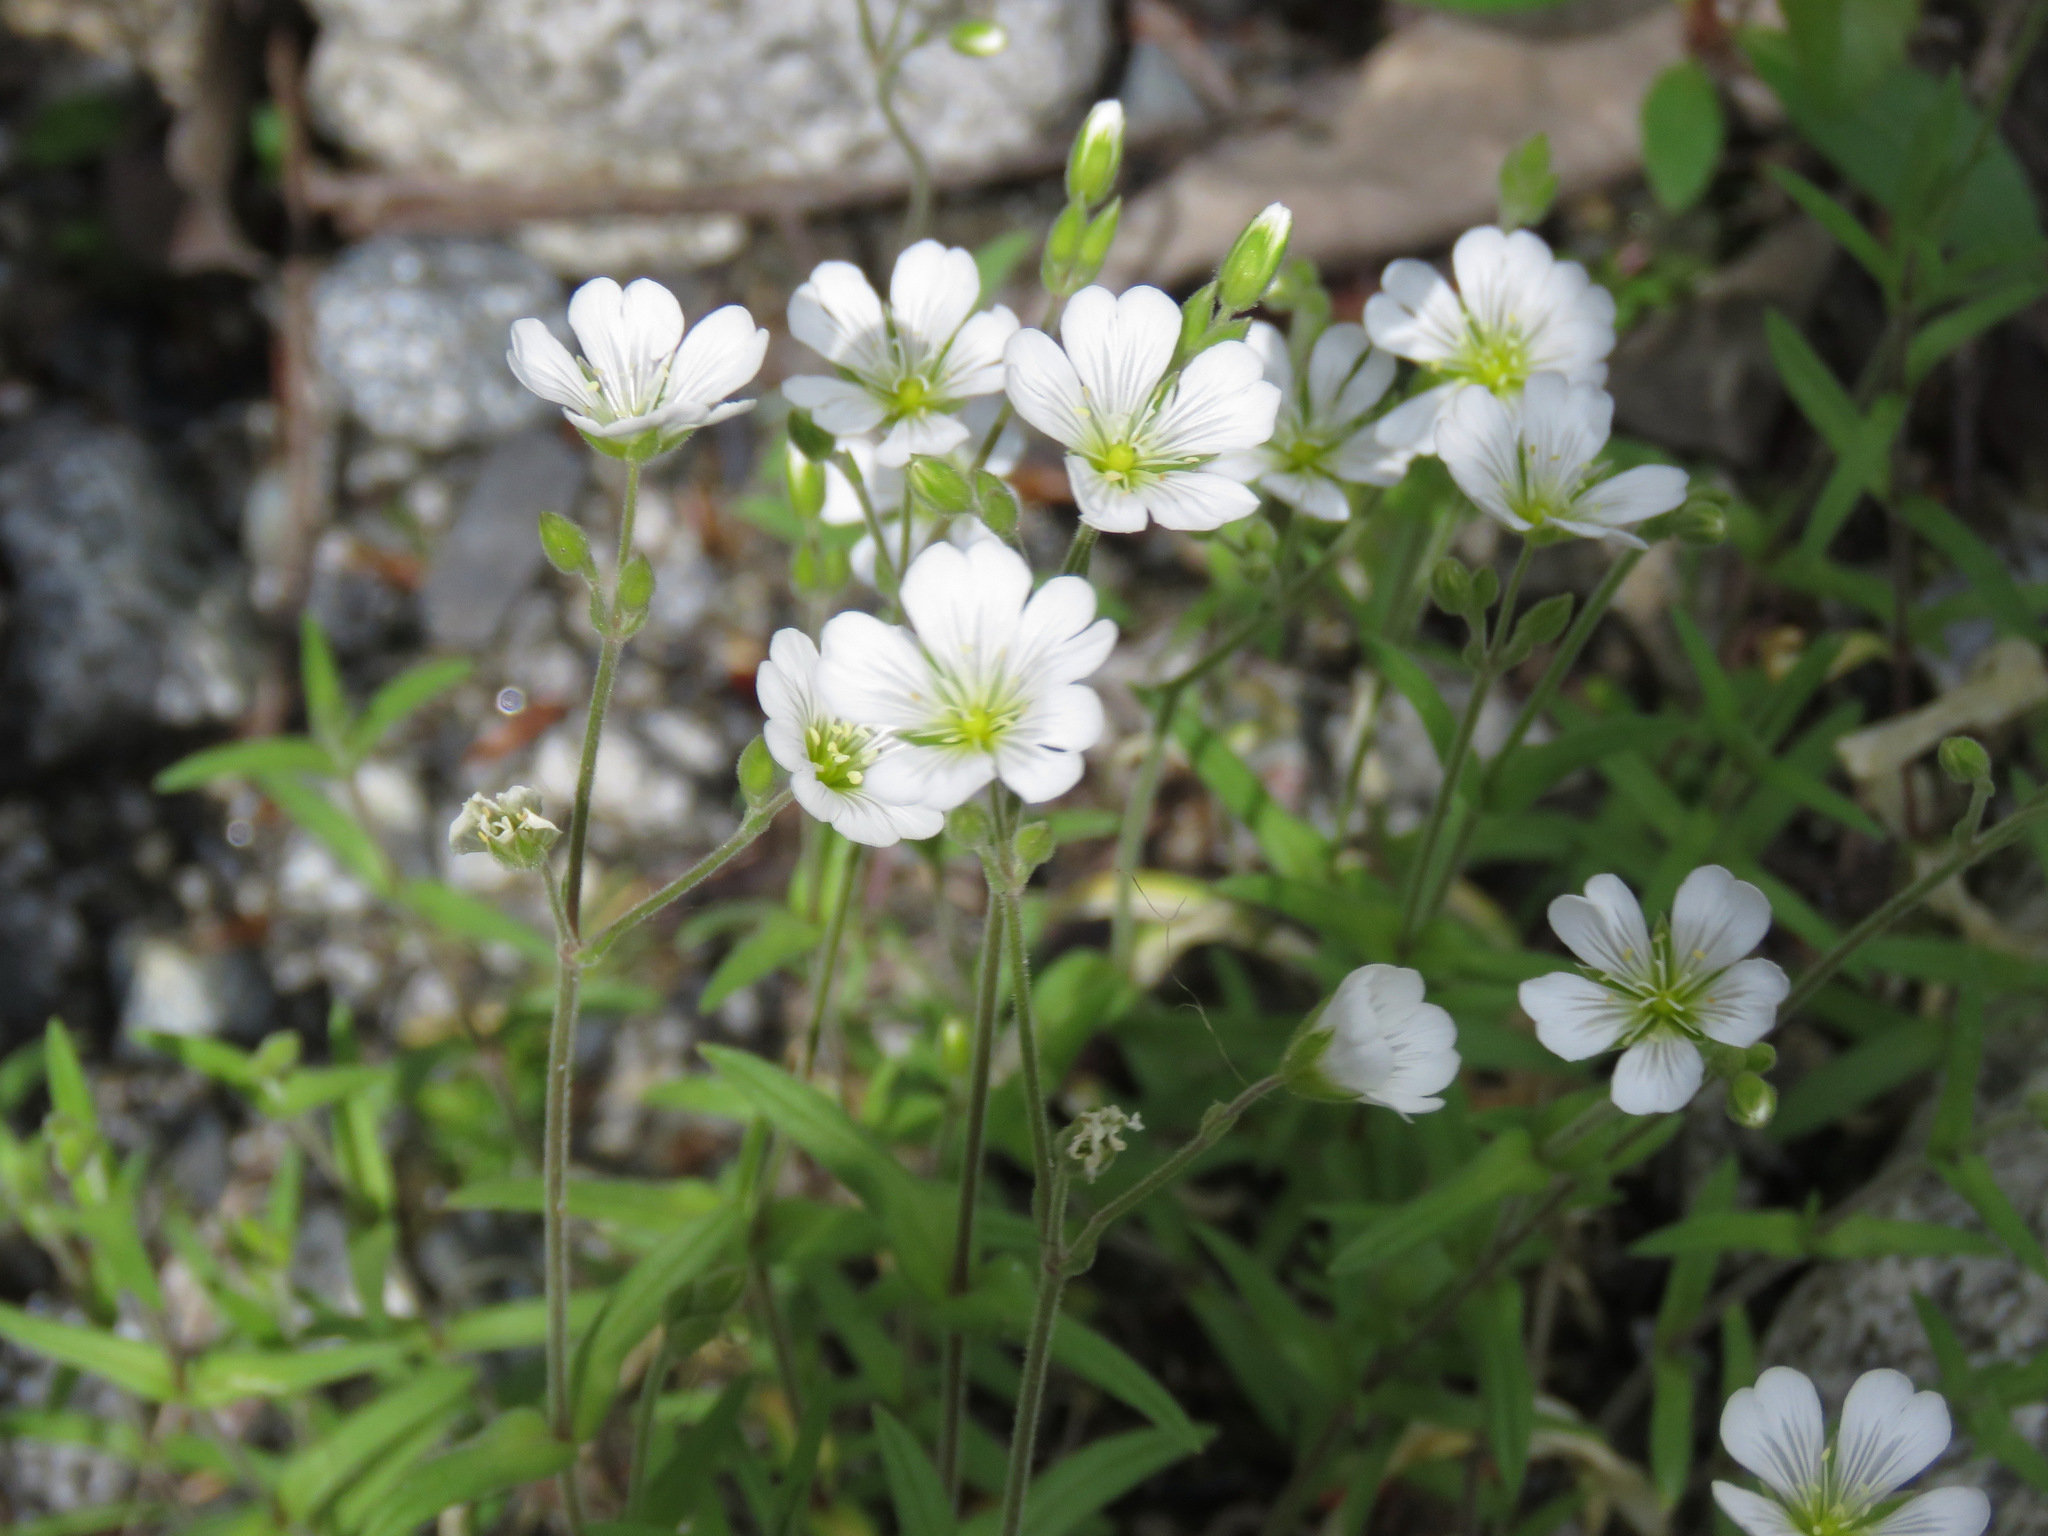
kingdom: Plantae
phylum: Tracheophyta
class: Magnoliopsida
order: Caryophyllales
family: Caryophyllaceae
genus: Cerastium
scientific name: Cerastium arvense
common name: Field mouse-ear
